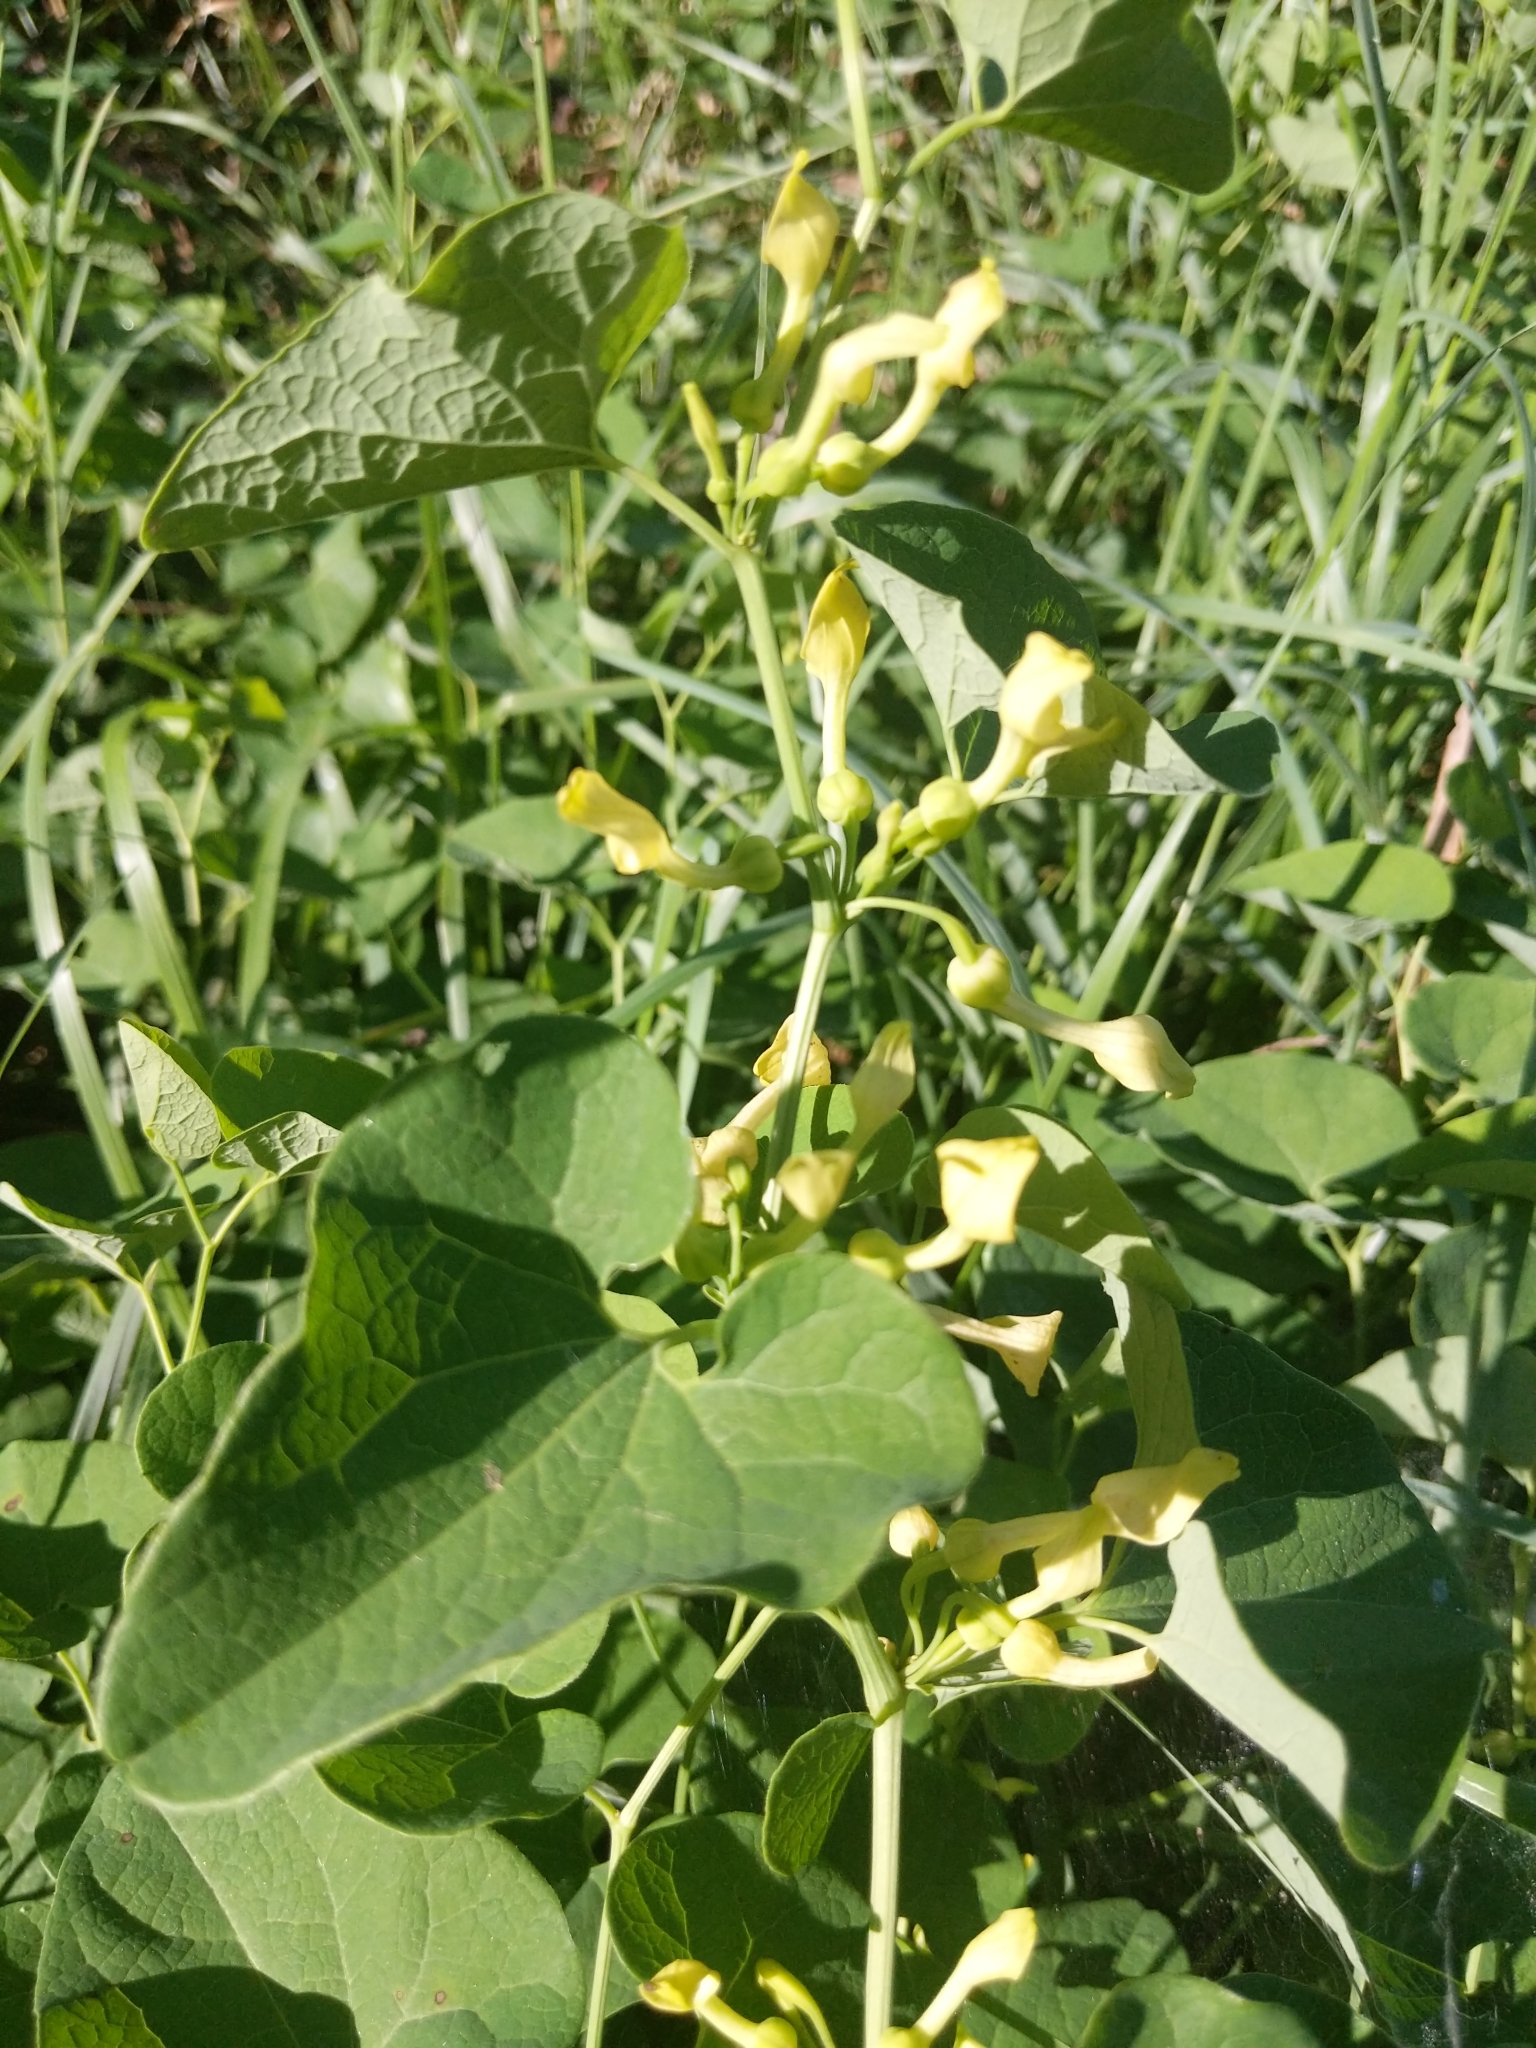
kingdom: Plantae
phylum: Tracheophyta
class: Magnoliopsida
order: Piperales
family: Aristolochiaceae
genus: Aristolochia
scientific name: Aristolochia clematitis
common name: Birthwort
